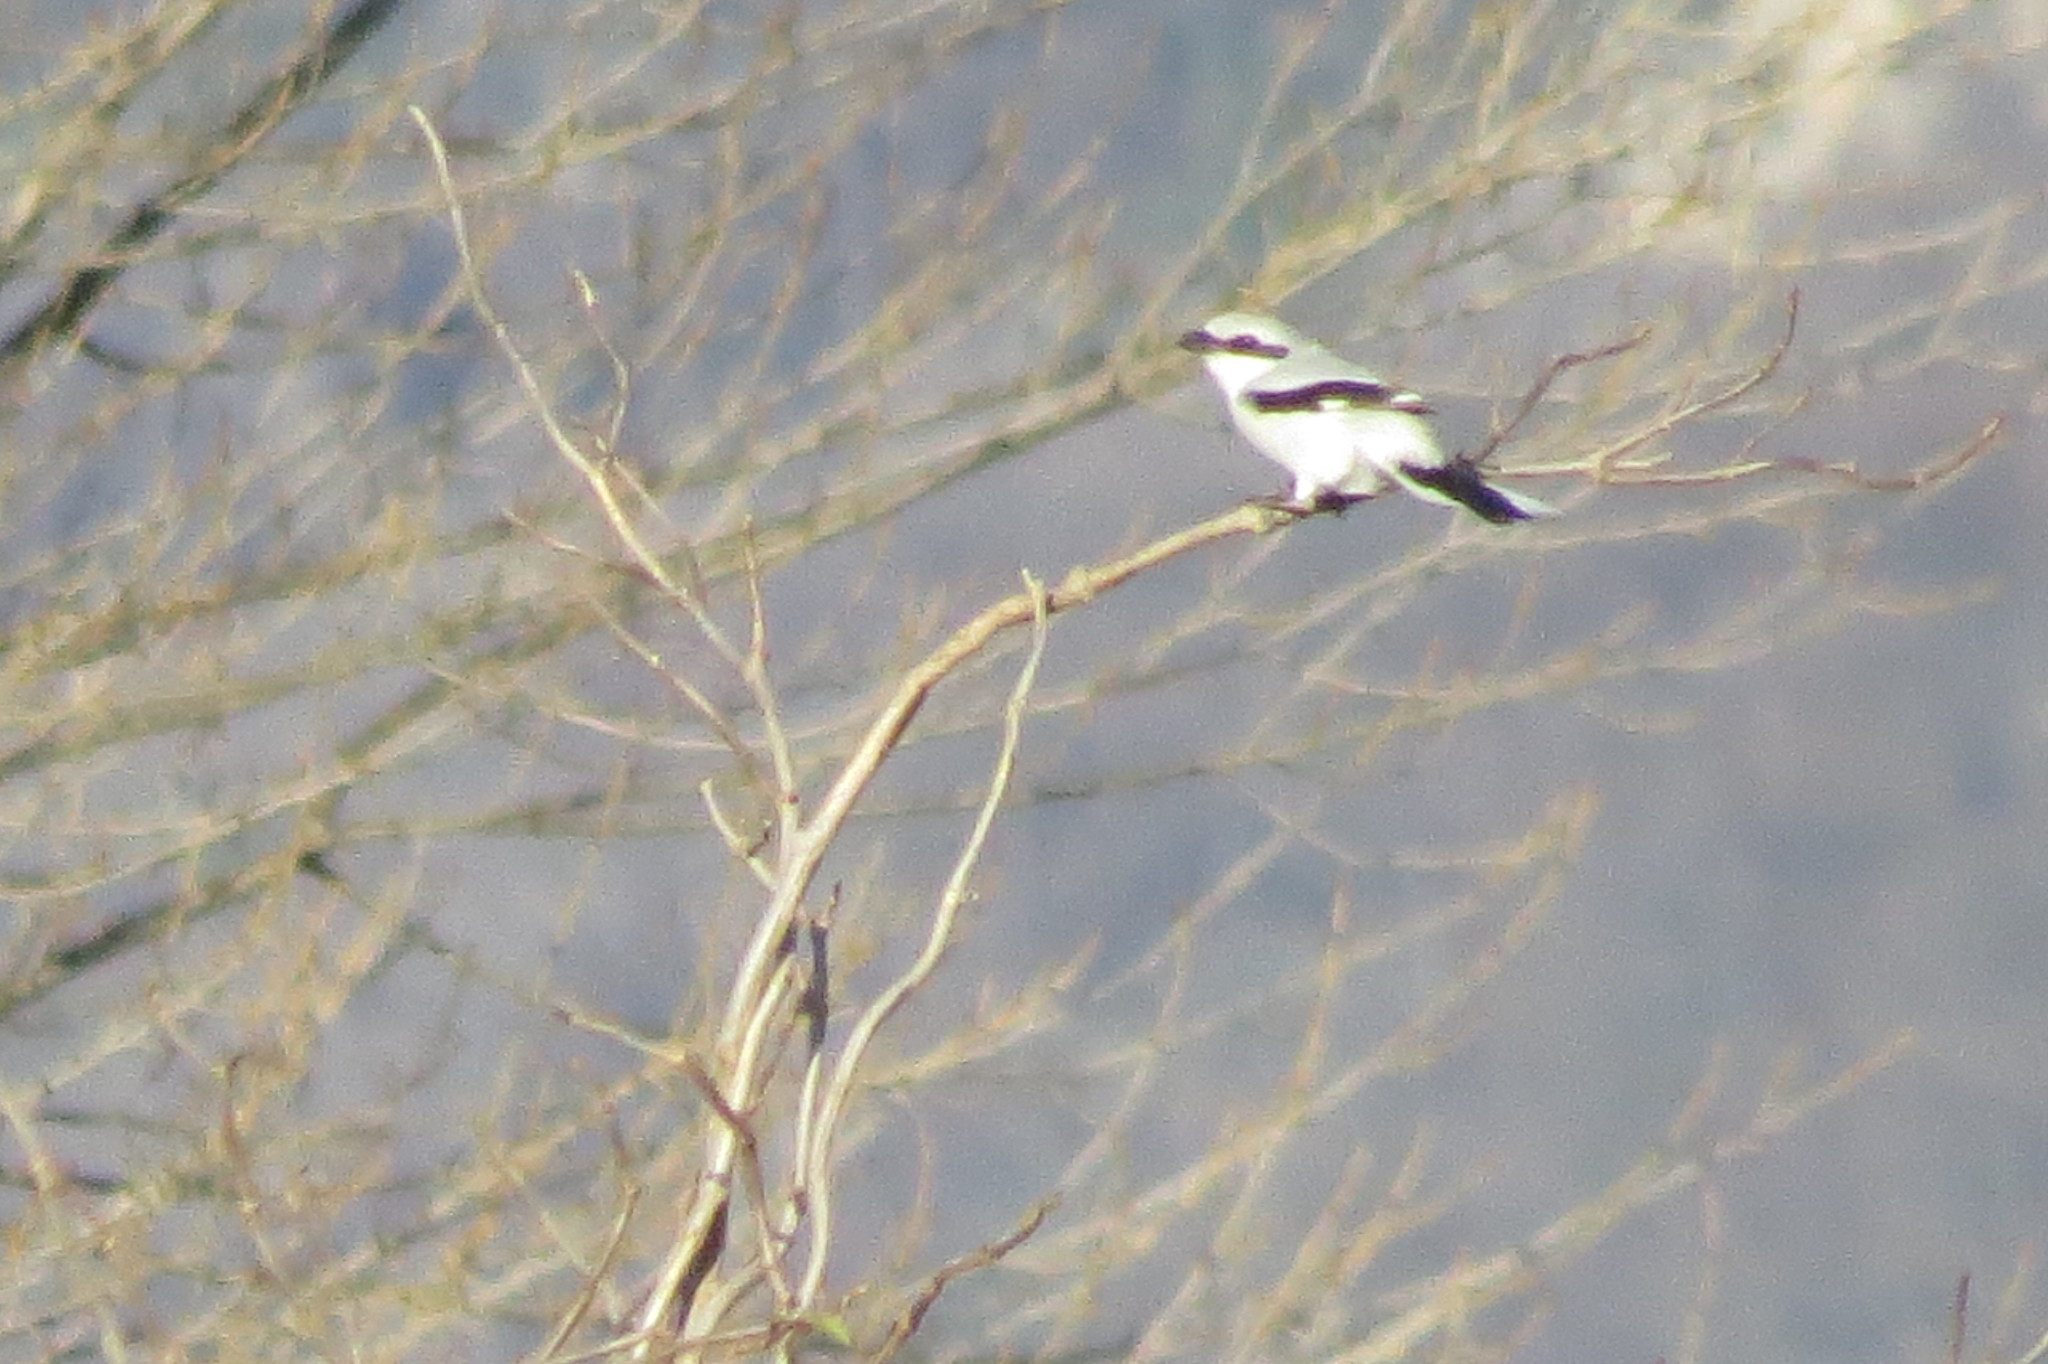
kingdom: Animalia
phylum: Chordata
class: Aves
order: Passeriformes
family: Laniidae
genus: Lanius
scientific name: Lanius excubitor
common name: Great grey shrike
